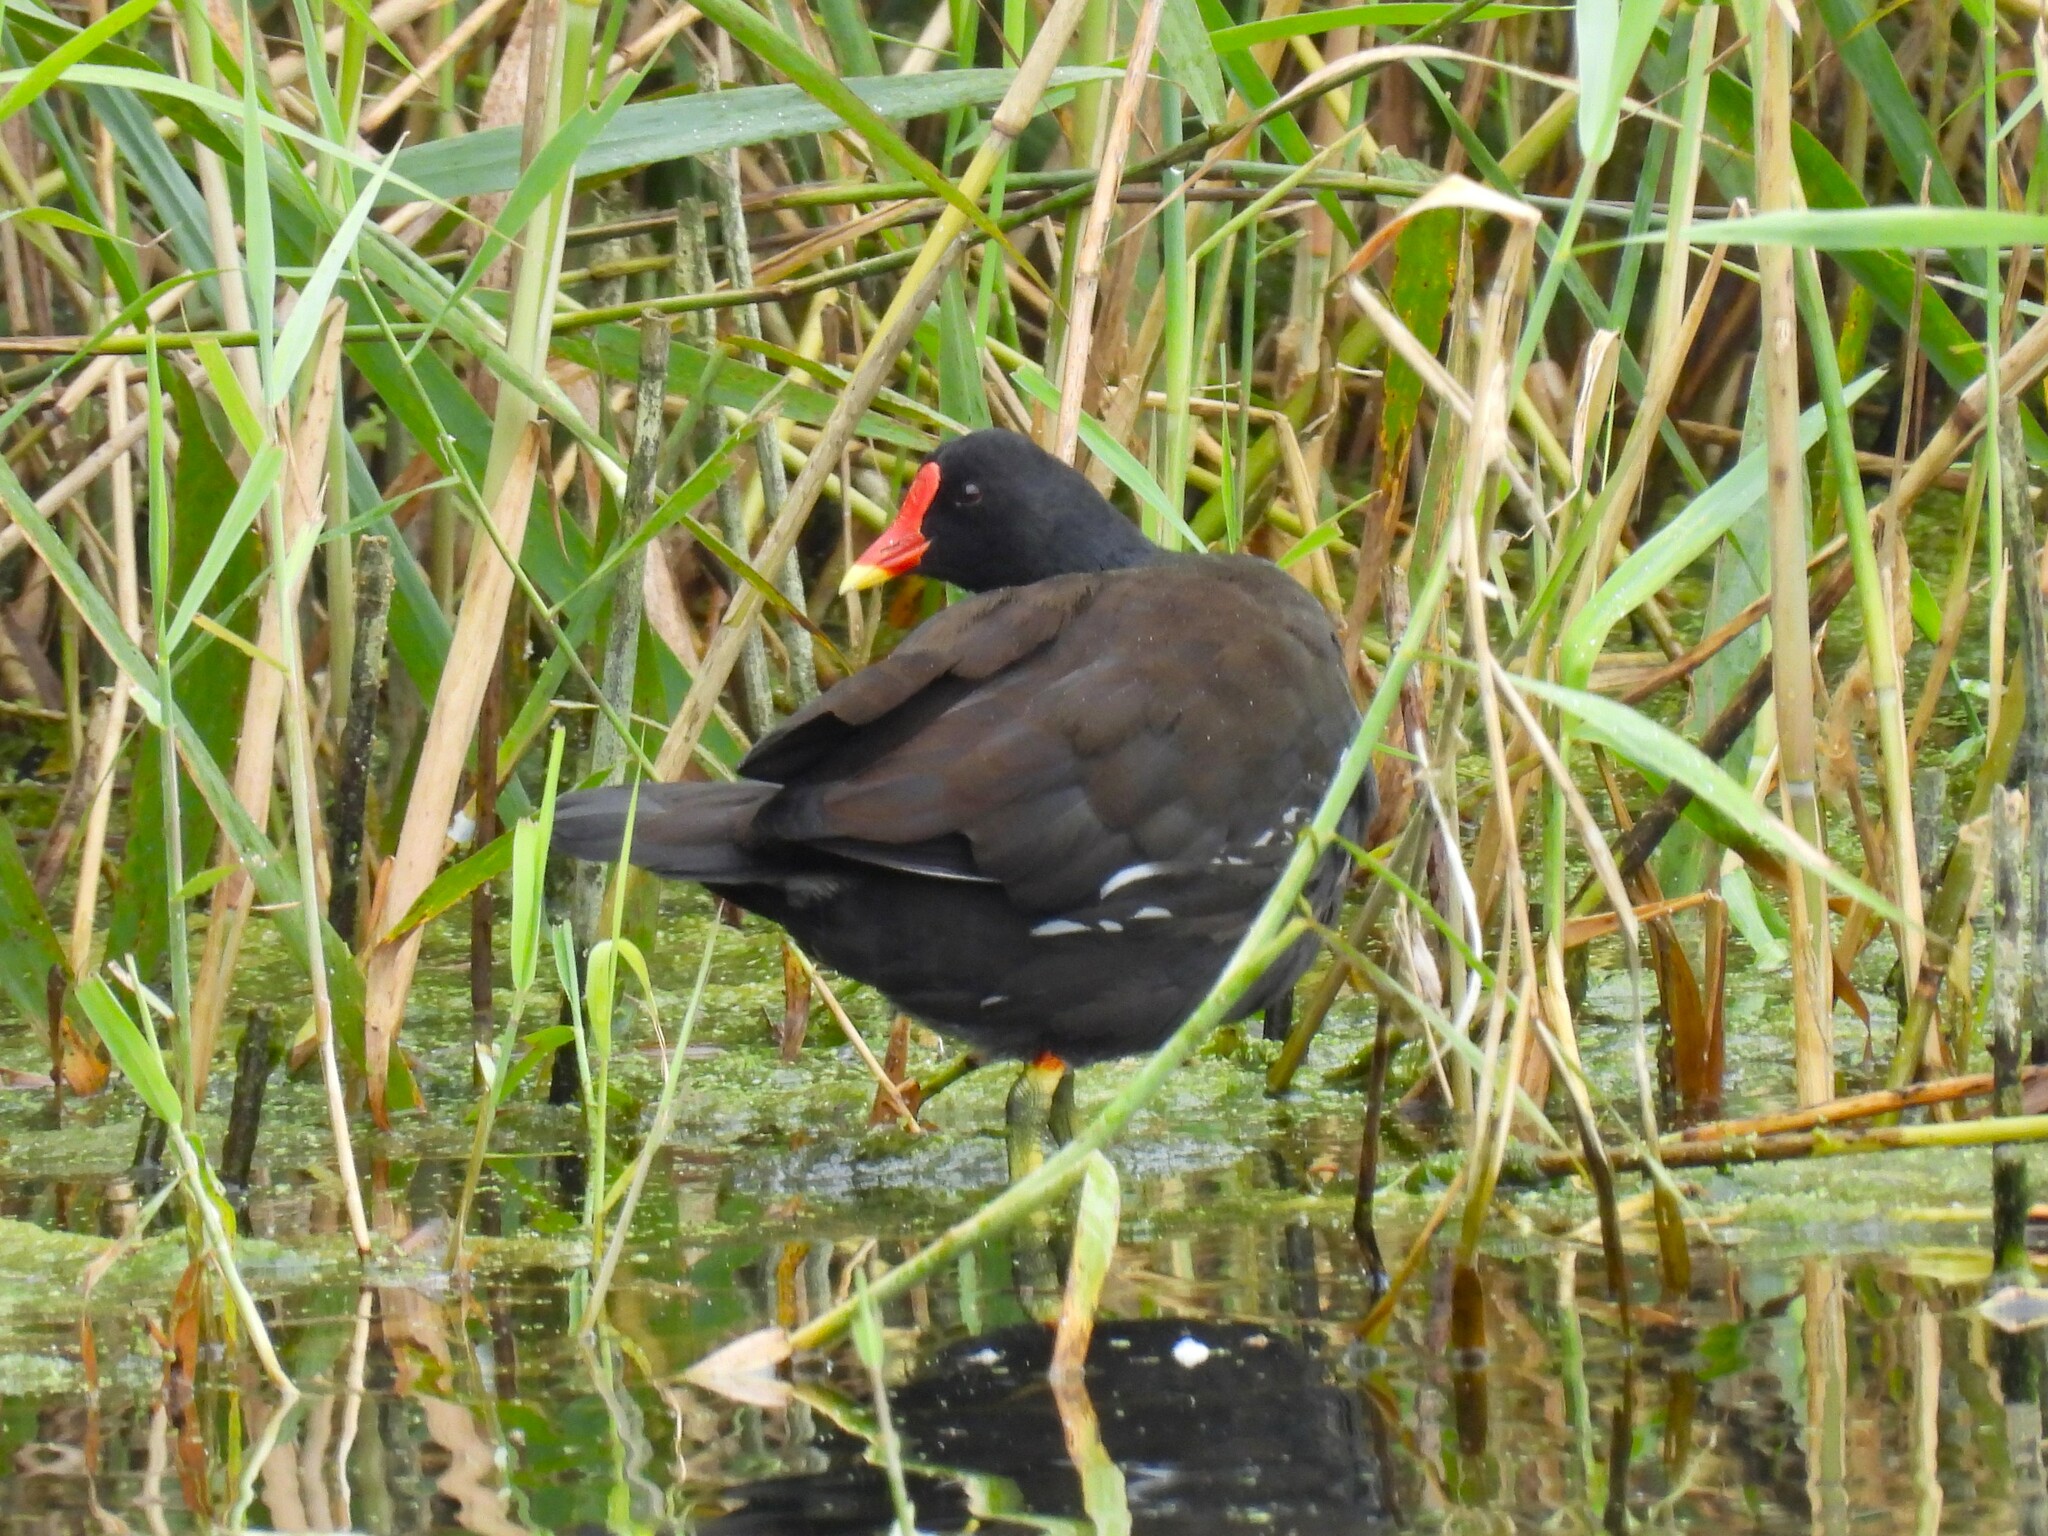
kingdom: Animalia
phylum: Chordata
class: Aves
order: Gruiformes
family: Rallidae
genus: Gallinula
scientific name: Gallinula chloropus
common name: Common moorhen
